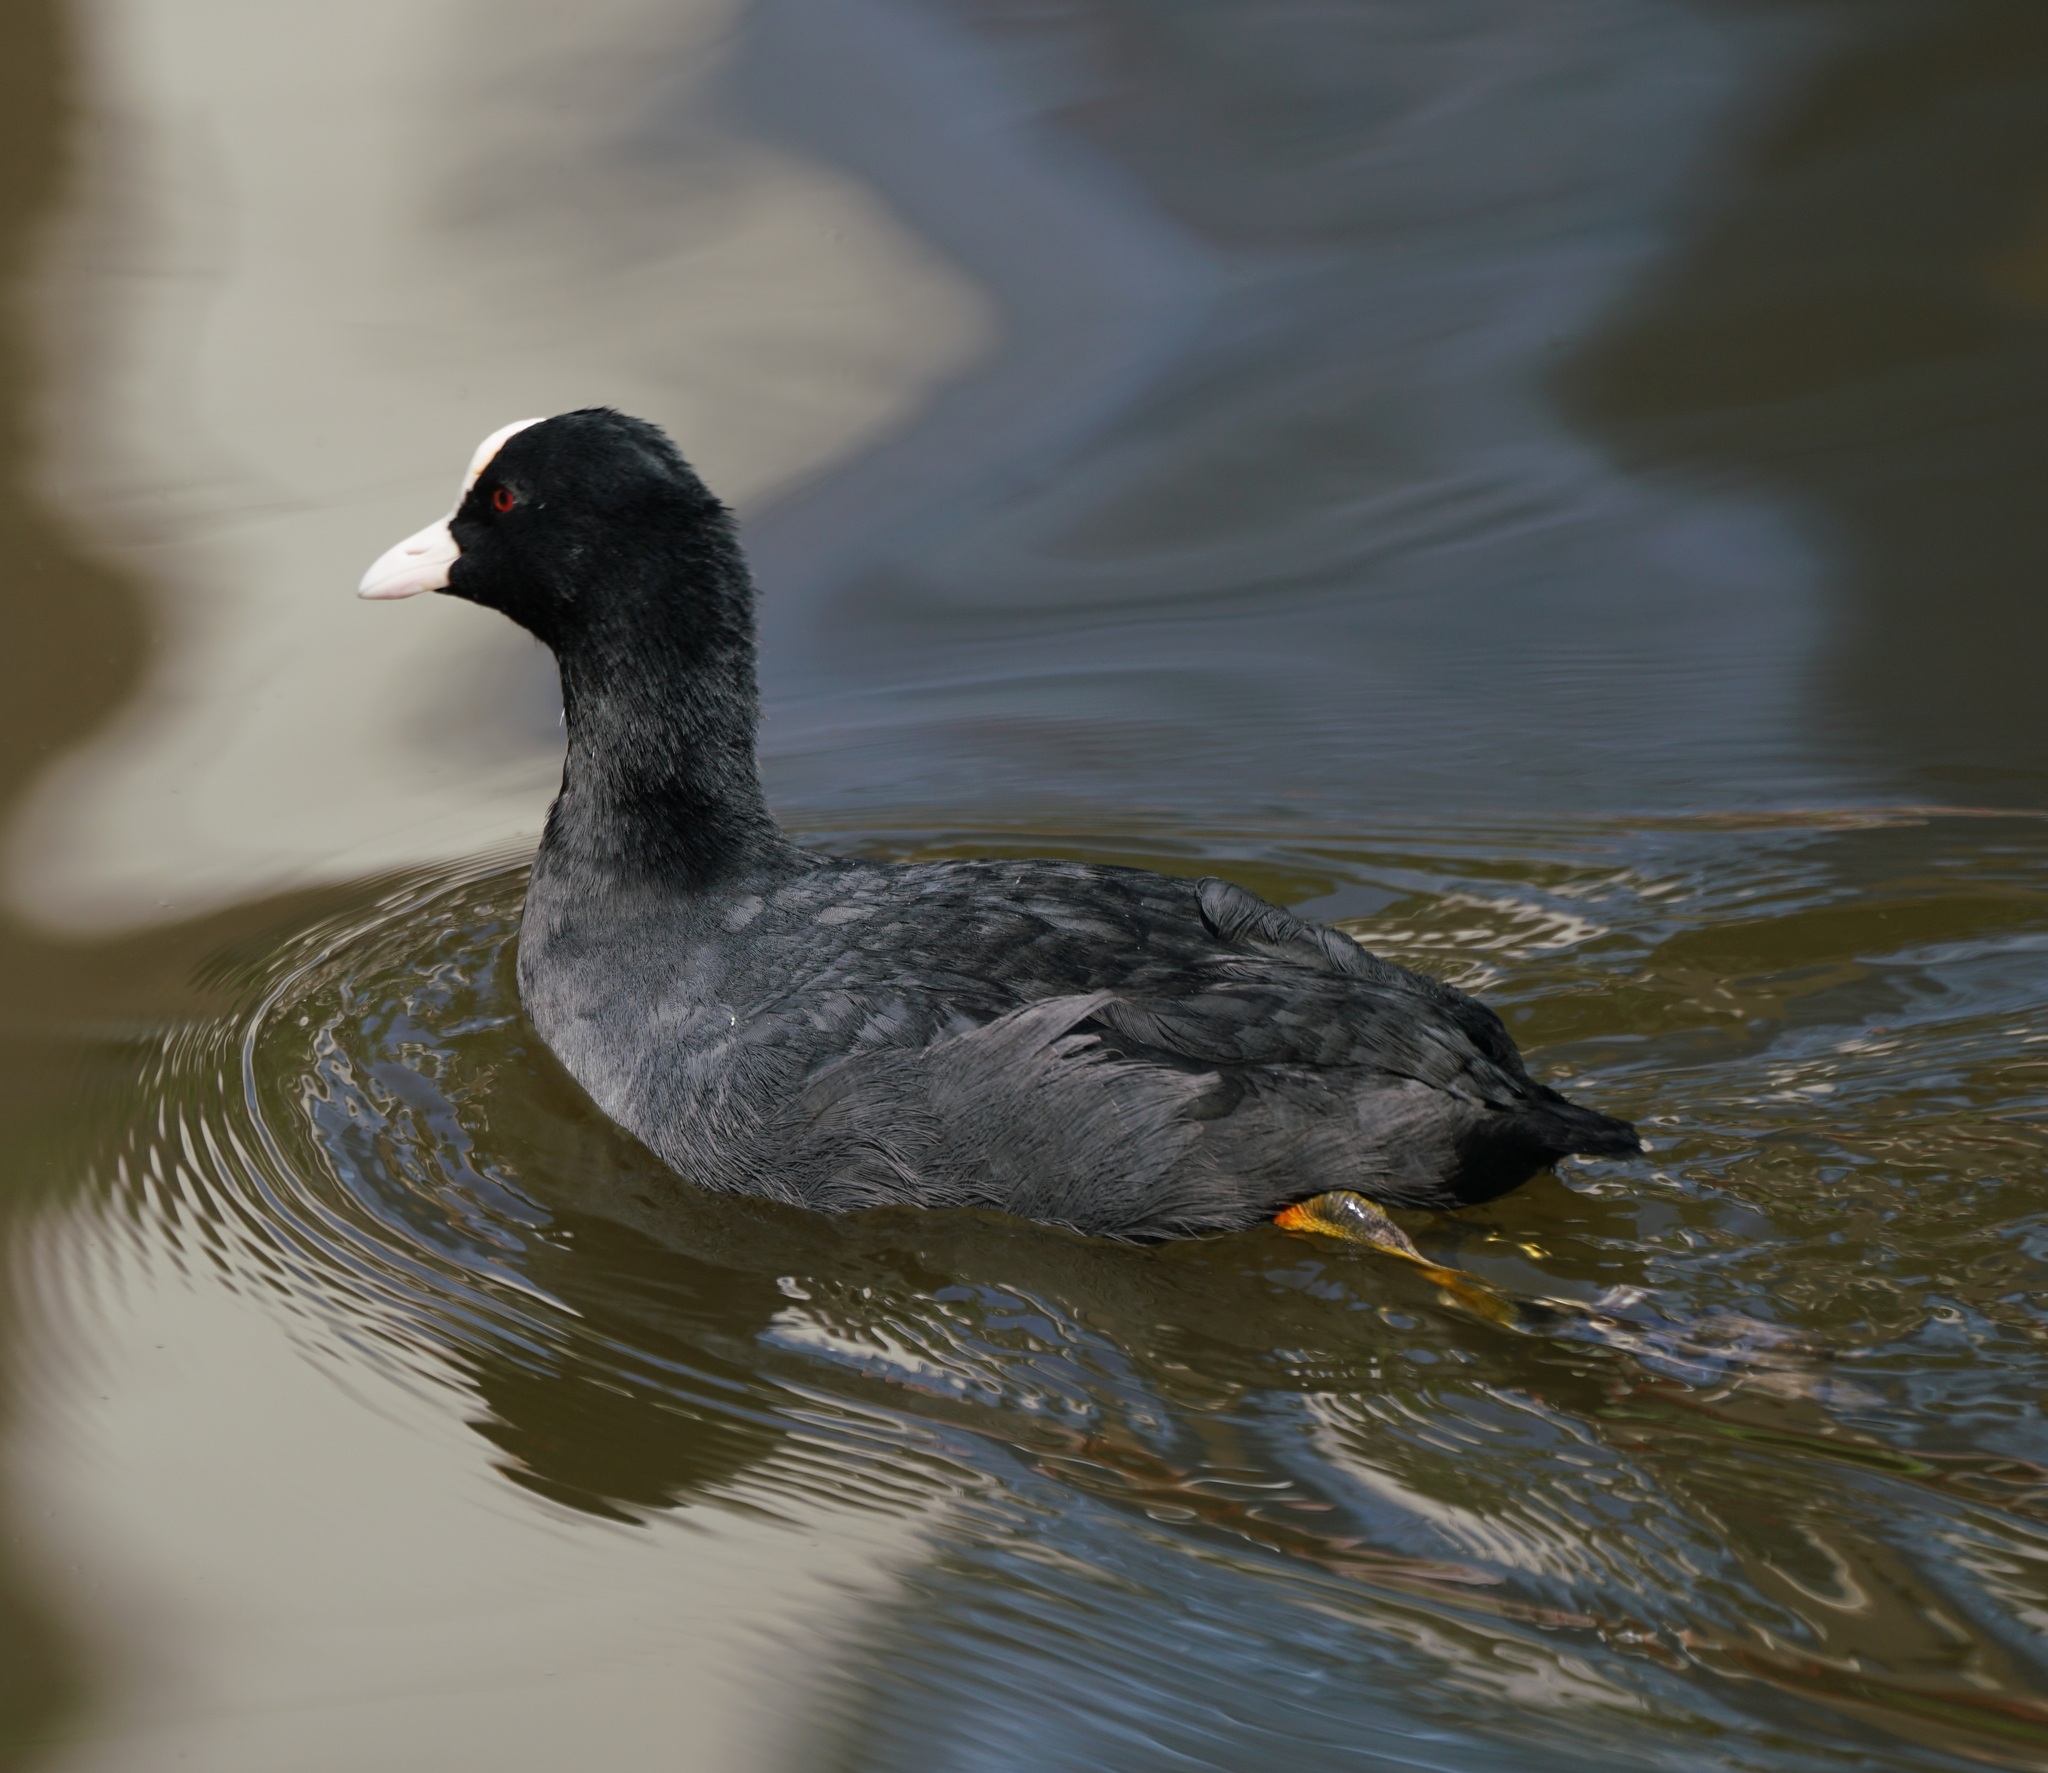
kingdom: Animalia
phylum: Chordata
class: Aves
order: Gruiformes
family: Rallidae
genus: Fulica
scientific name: Fulica atra
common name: Eurasian coot
